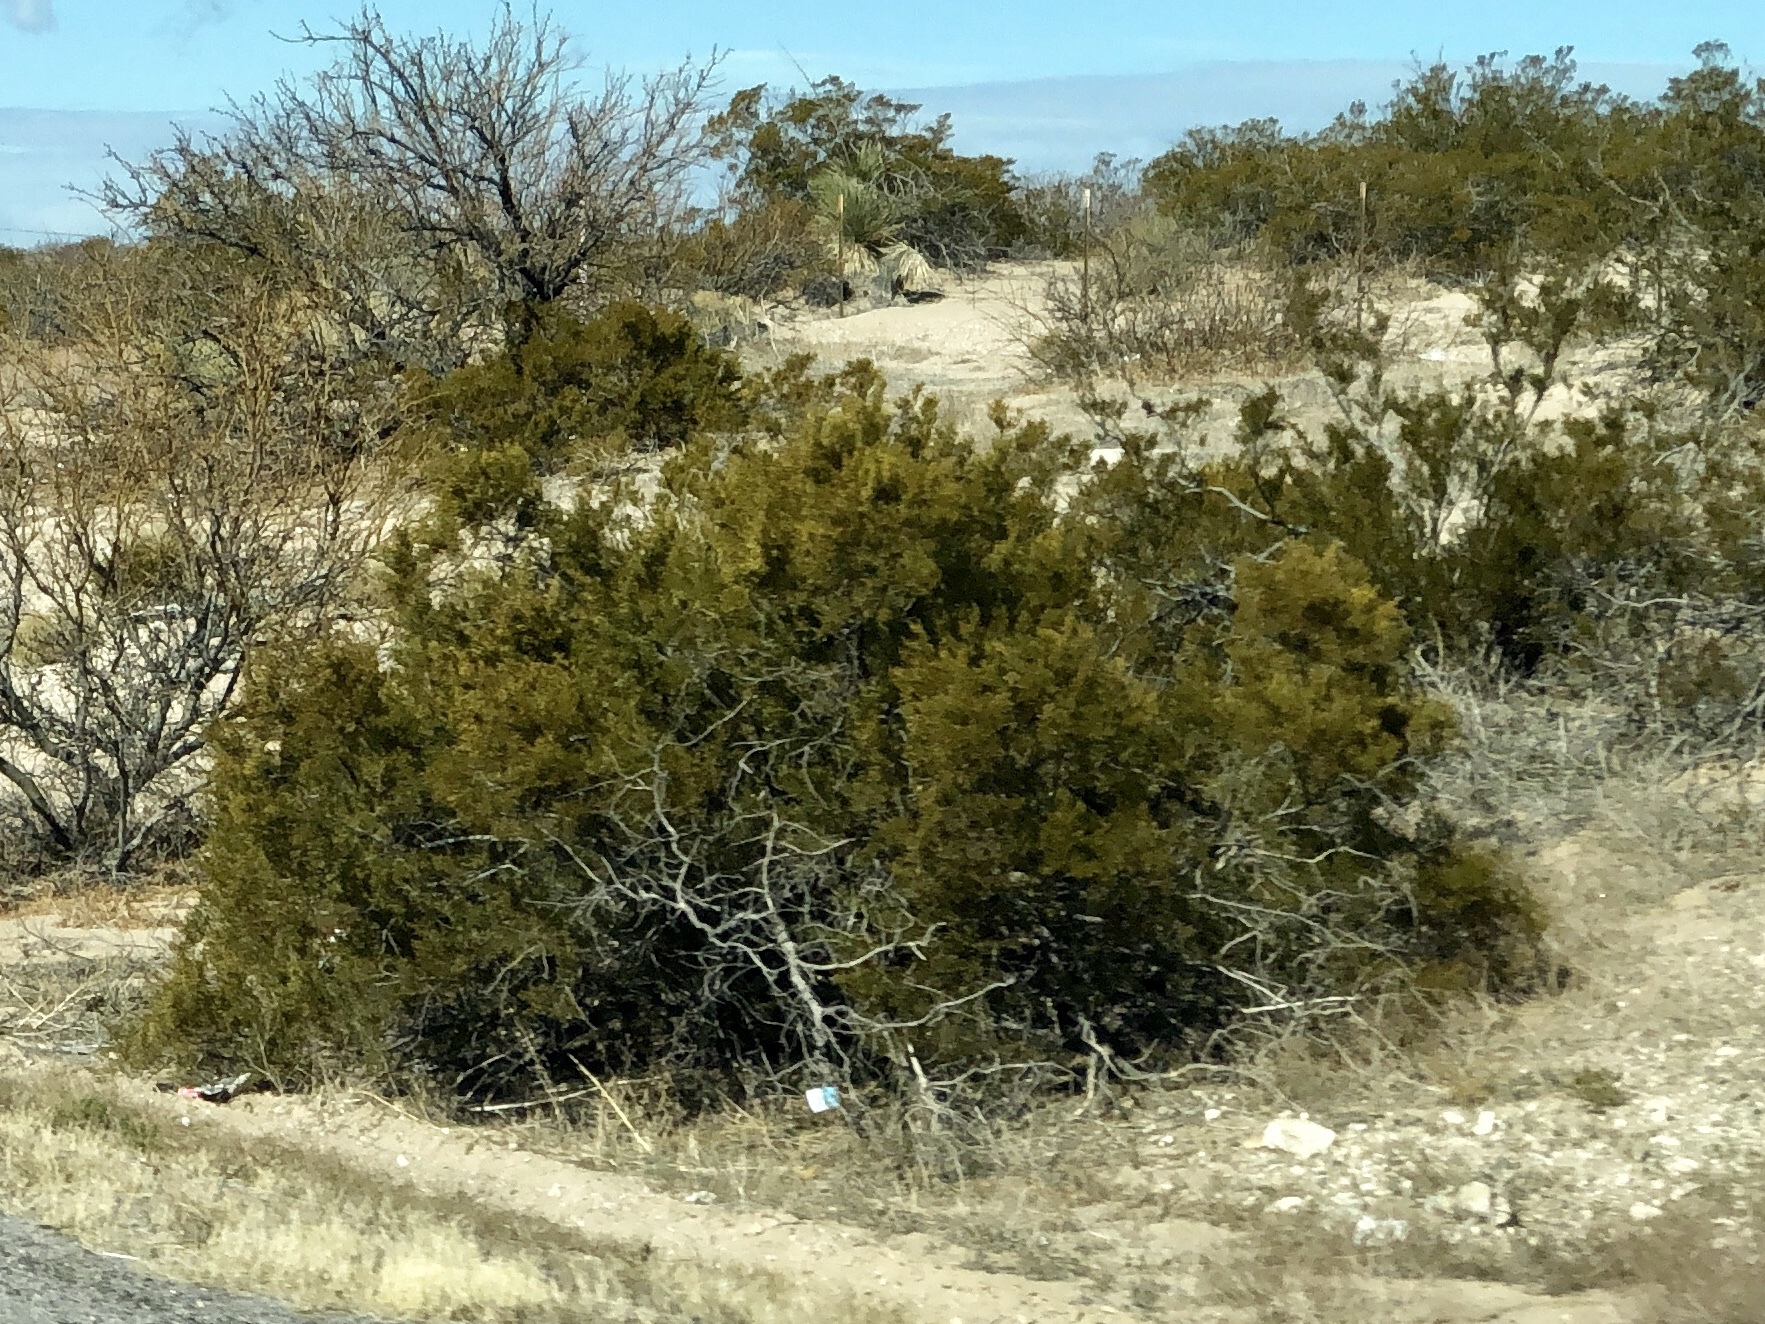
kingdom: Plantae
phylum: Tracheophyta
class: Magnoliopsida
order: Zygophyllales
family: Zygophyllaceae
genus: Larrea
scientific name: Larrea tridentata
